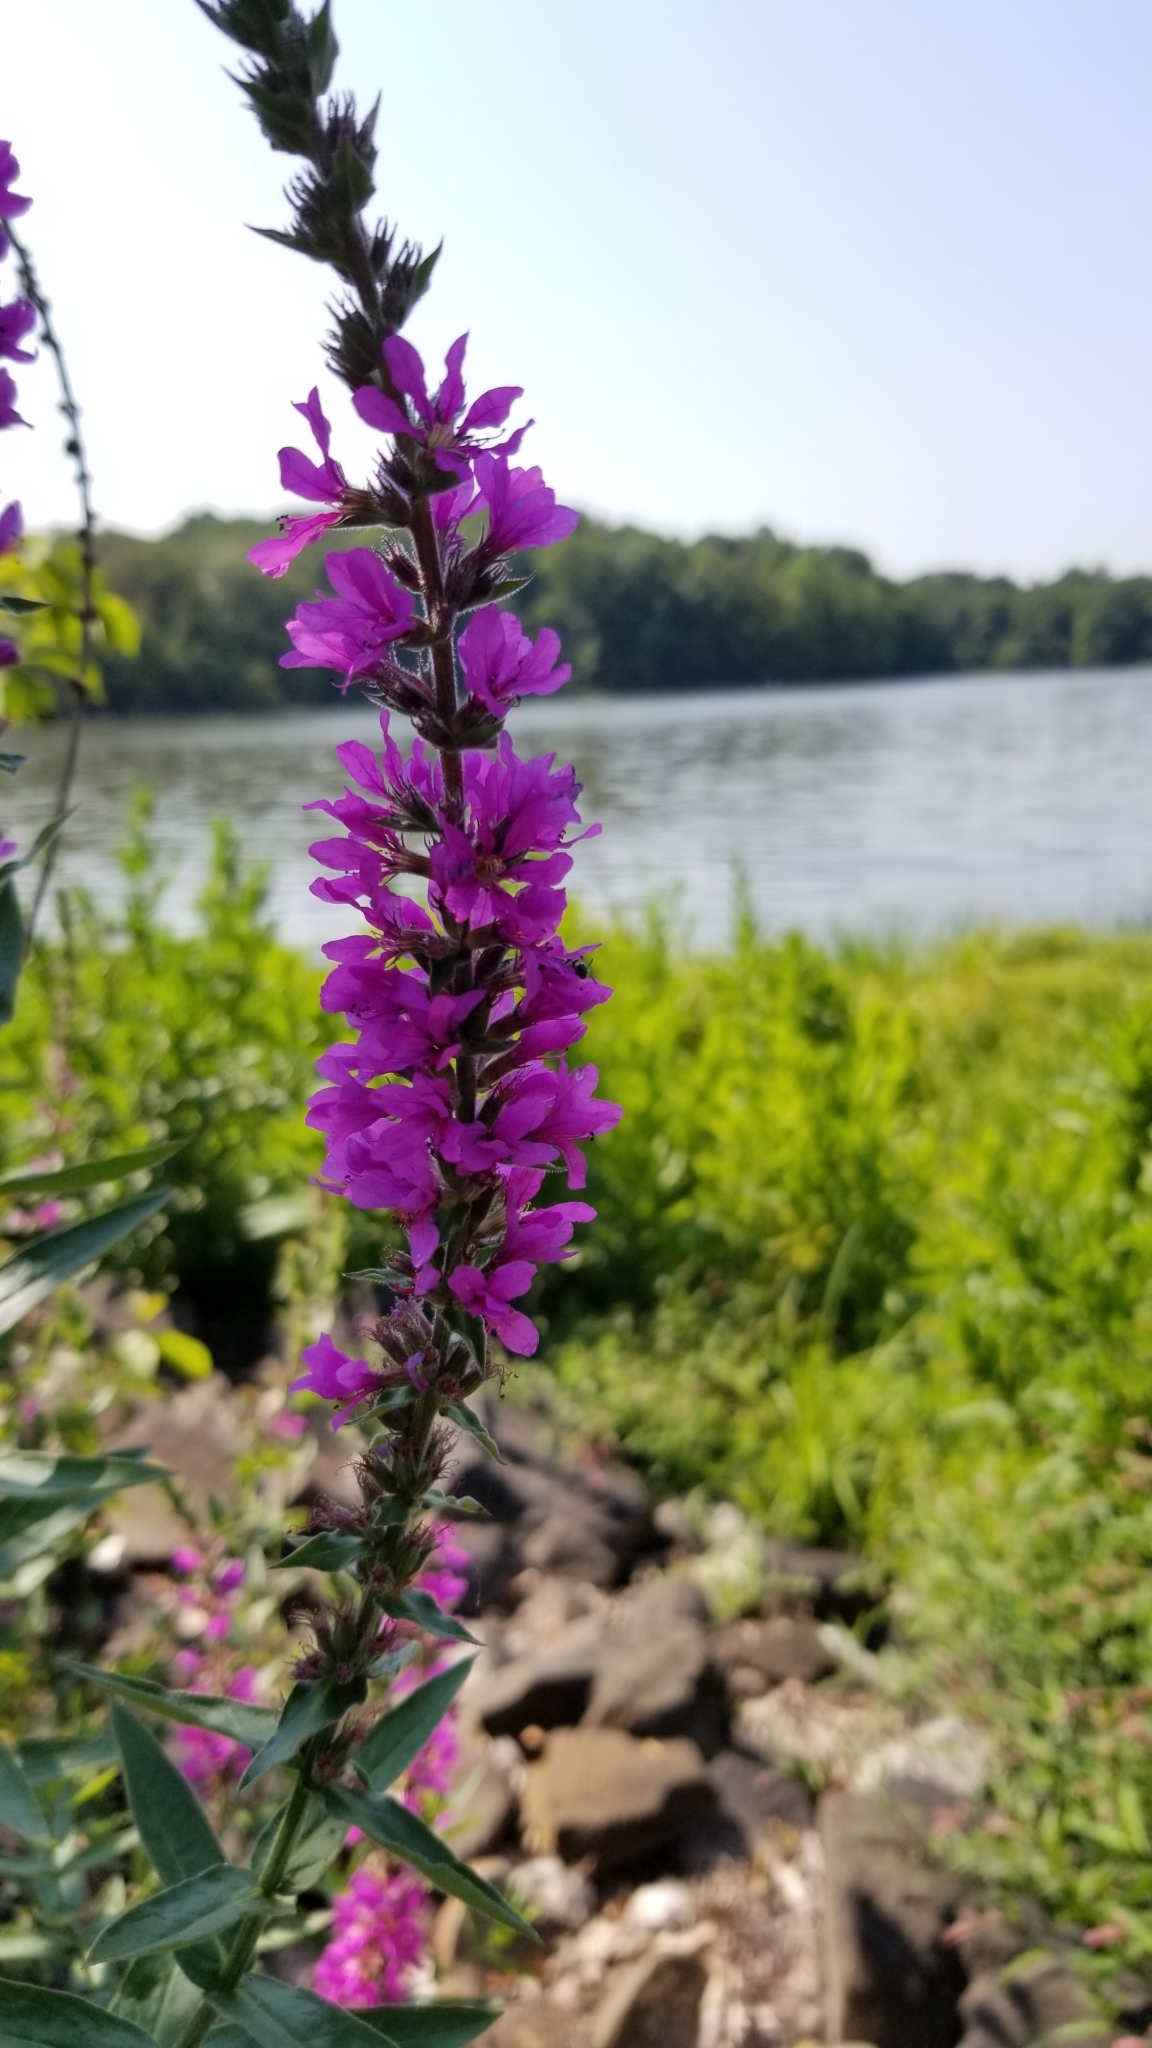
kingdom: Plantae
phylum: Tracheophyta
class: Magnoliopsida
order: Myrtales
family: Lythraceae
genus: Lythrum
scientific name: Lythrum salicaria
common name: Purple loosestrife
